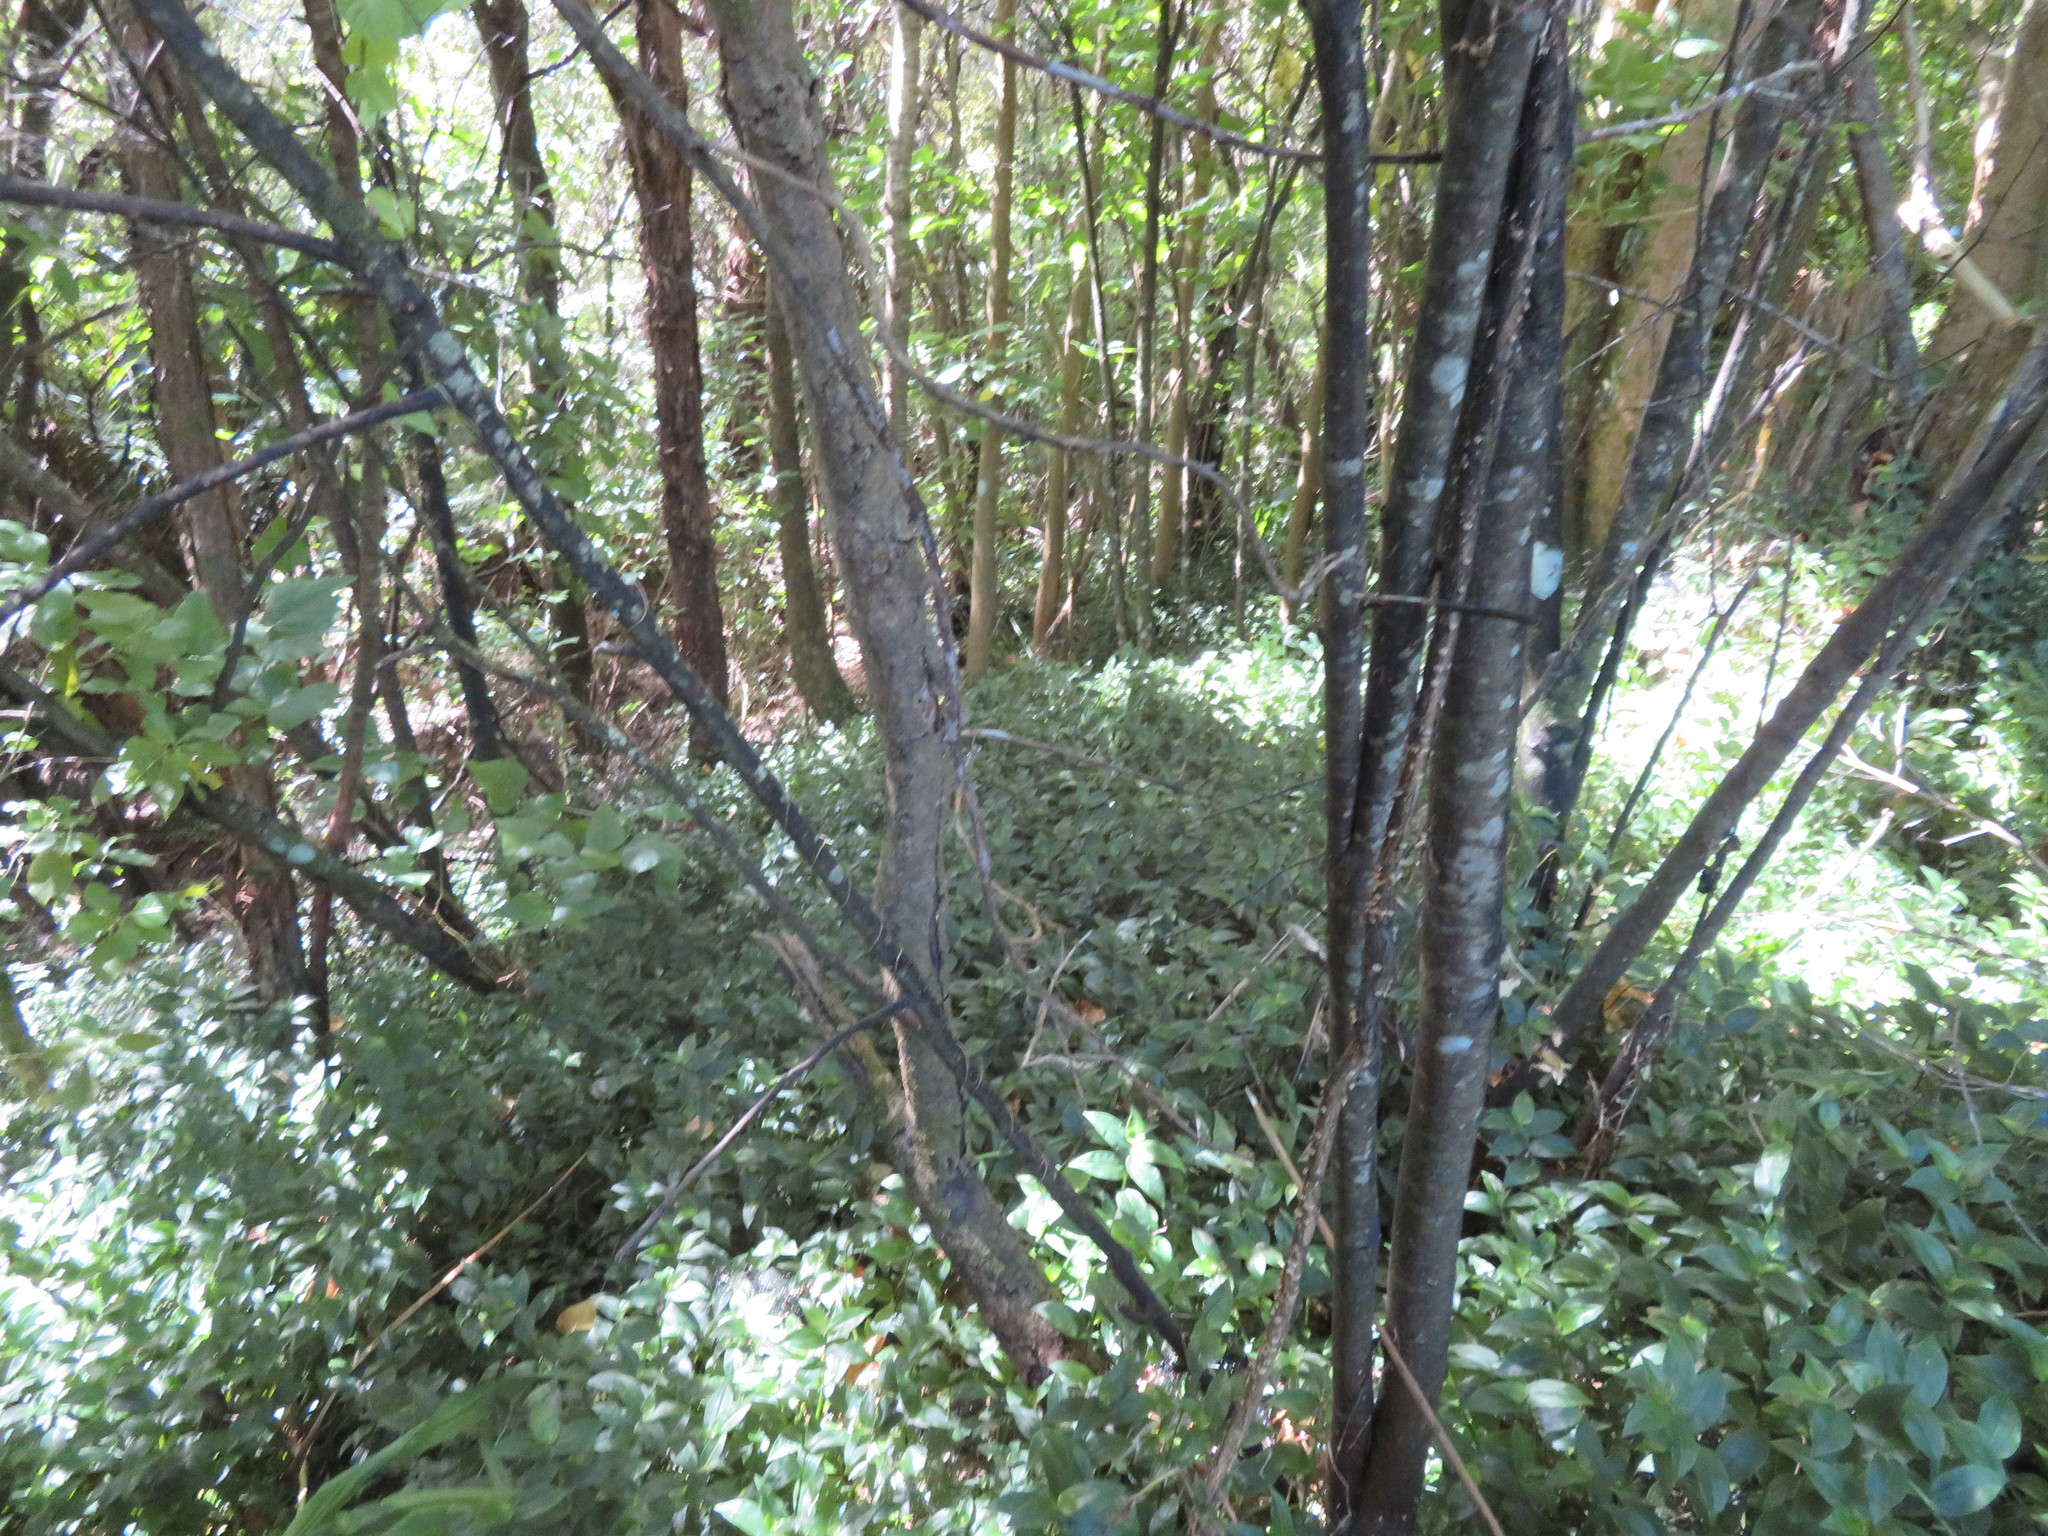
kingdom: Plantae
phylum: Tracheophyta
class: Magnoliopsida
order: Ericales
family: Primulaceae
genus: Myrsine
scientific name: Myrsine australis
